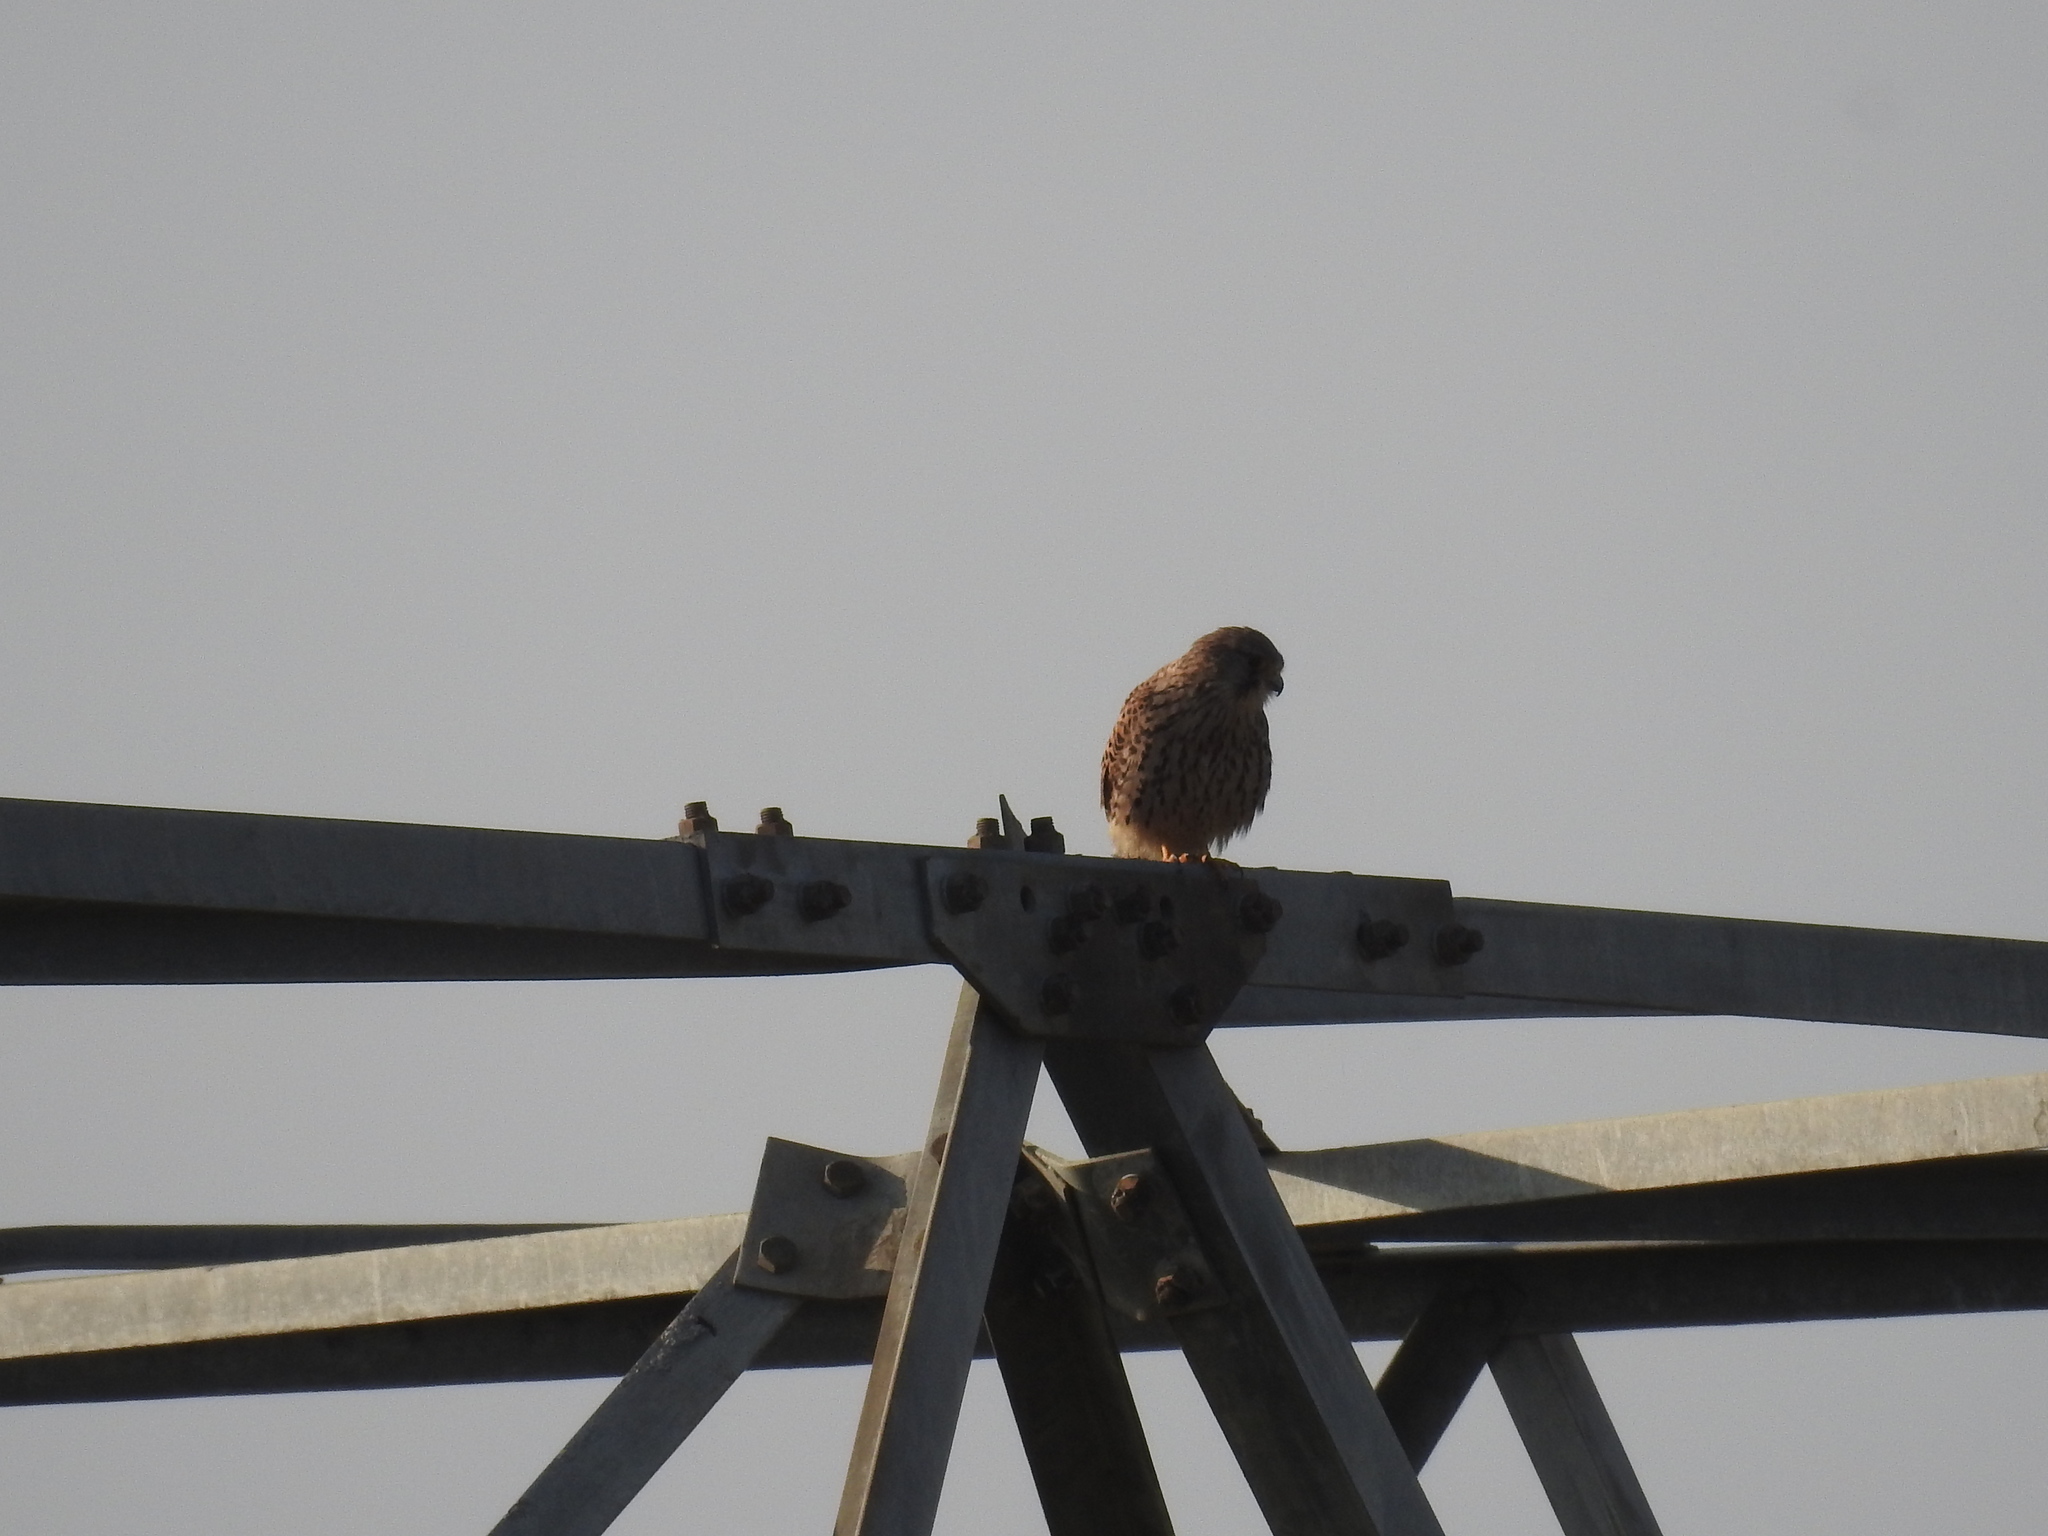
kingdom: Animalia
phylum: Chordata
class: Aves
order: Falconiformes
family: Falconidae
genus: Falco
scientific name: Falco tinnunculus
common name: Common kestrel
